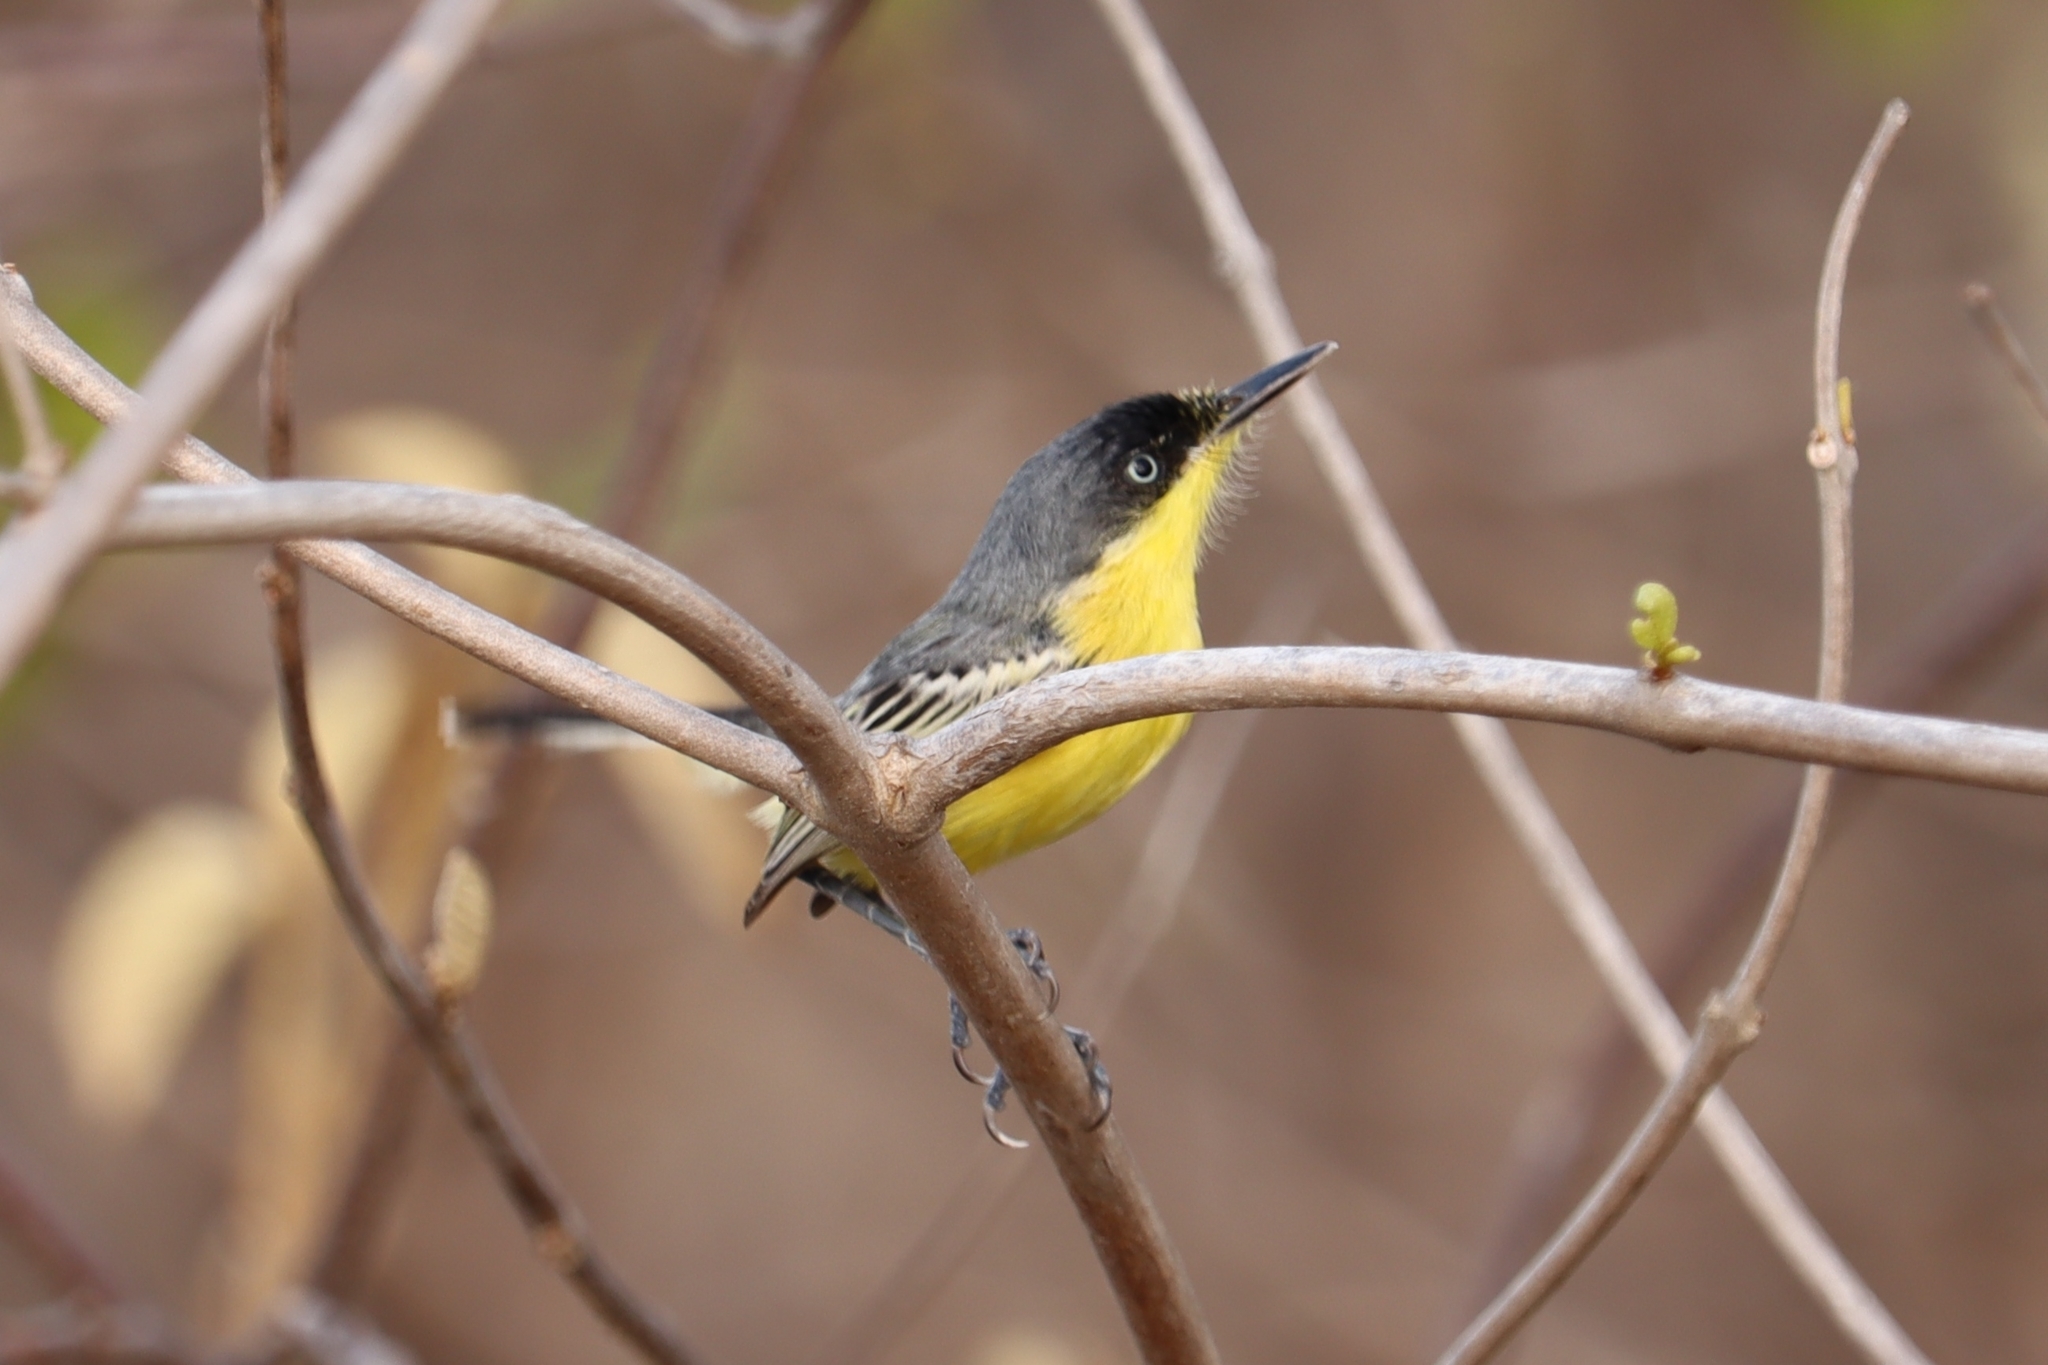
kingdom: Animalia
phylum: Chordata
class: Aves
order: Passeriformes
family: Tyrannidae
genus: Todirostrum
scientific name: Todirostrum cinereum
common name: Common tody-flycatcher
